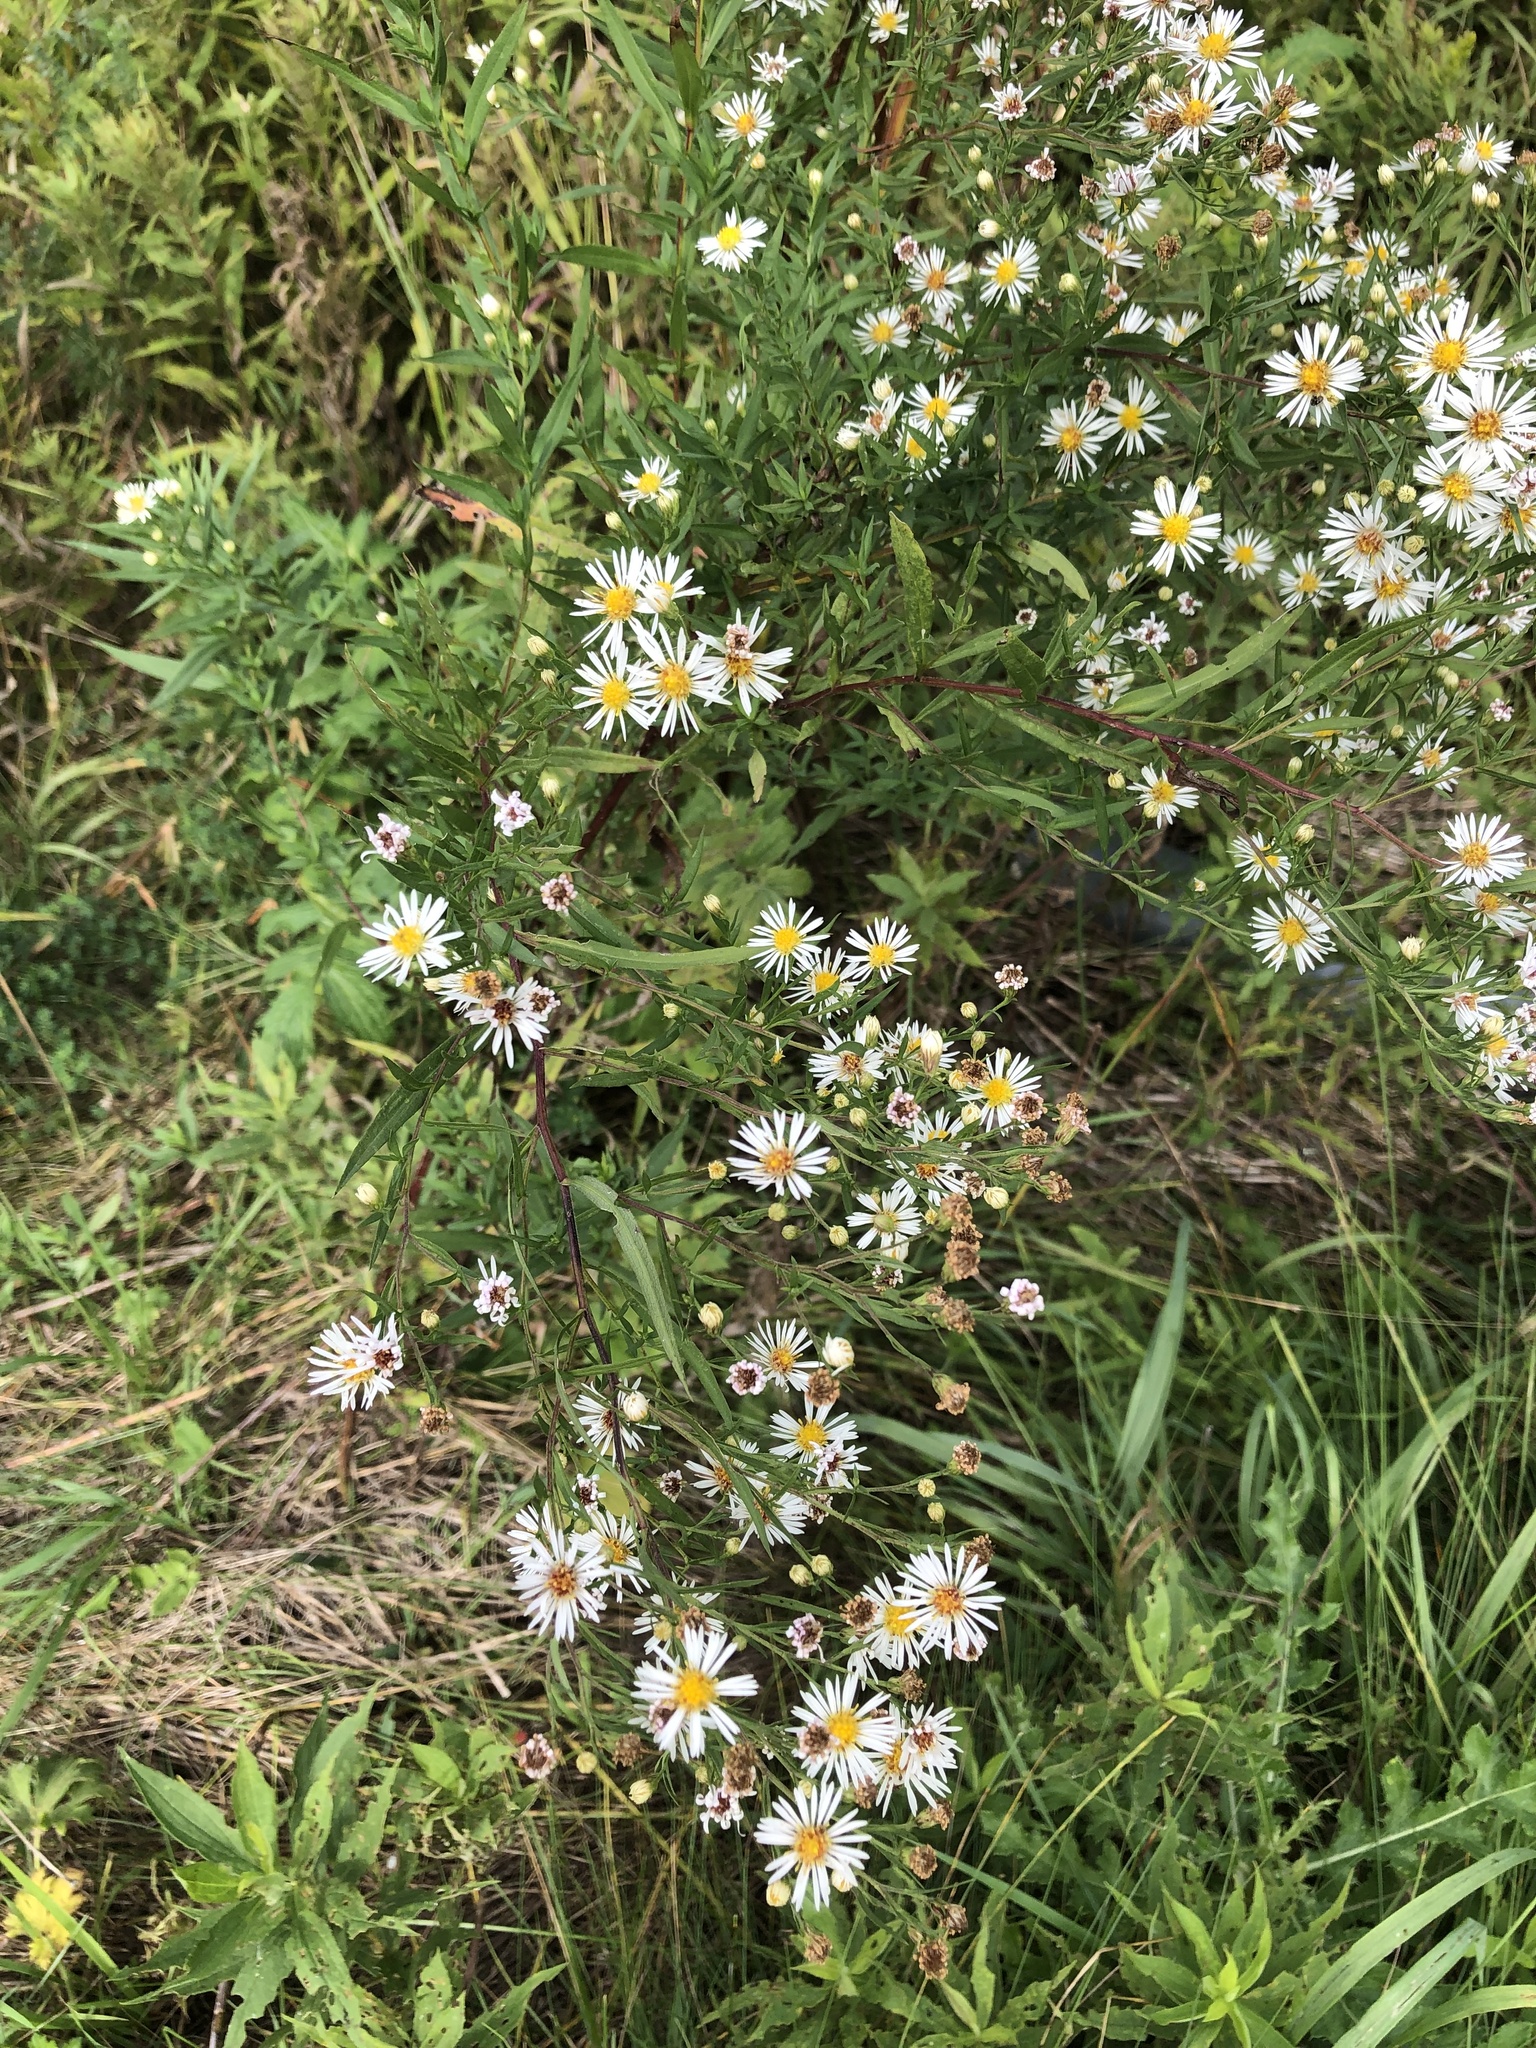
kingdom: Plantae
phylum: Tracheophyta
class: Magnoliopsida
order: Asterales
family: Asteraceae
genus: Symphyotrichum
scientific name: Symphyotrichum lanceolatum
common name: Panicled aster
